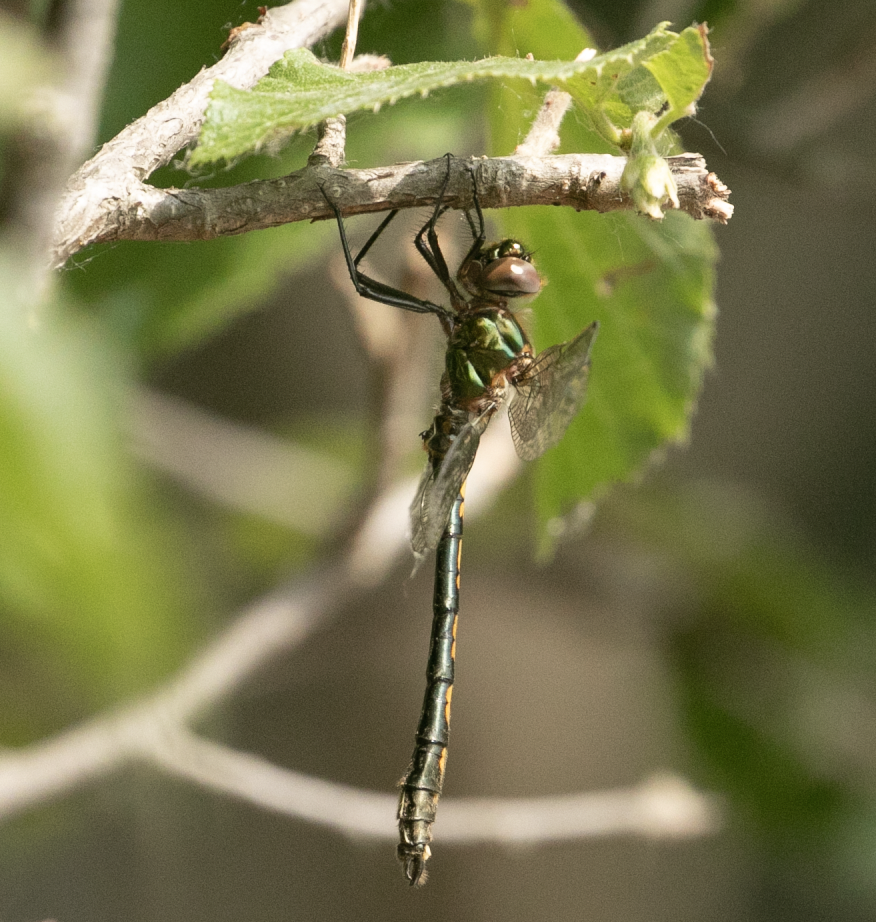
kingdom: Animalia
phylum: Arthropoda
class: Insecta
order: Odonata
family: Corduliidae
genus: Oxygastra
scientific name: Oxygastra curtisii
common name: Orange-spotted emerald
